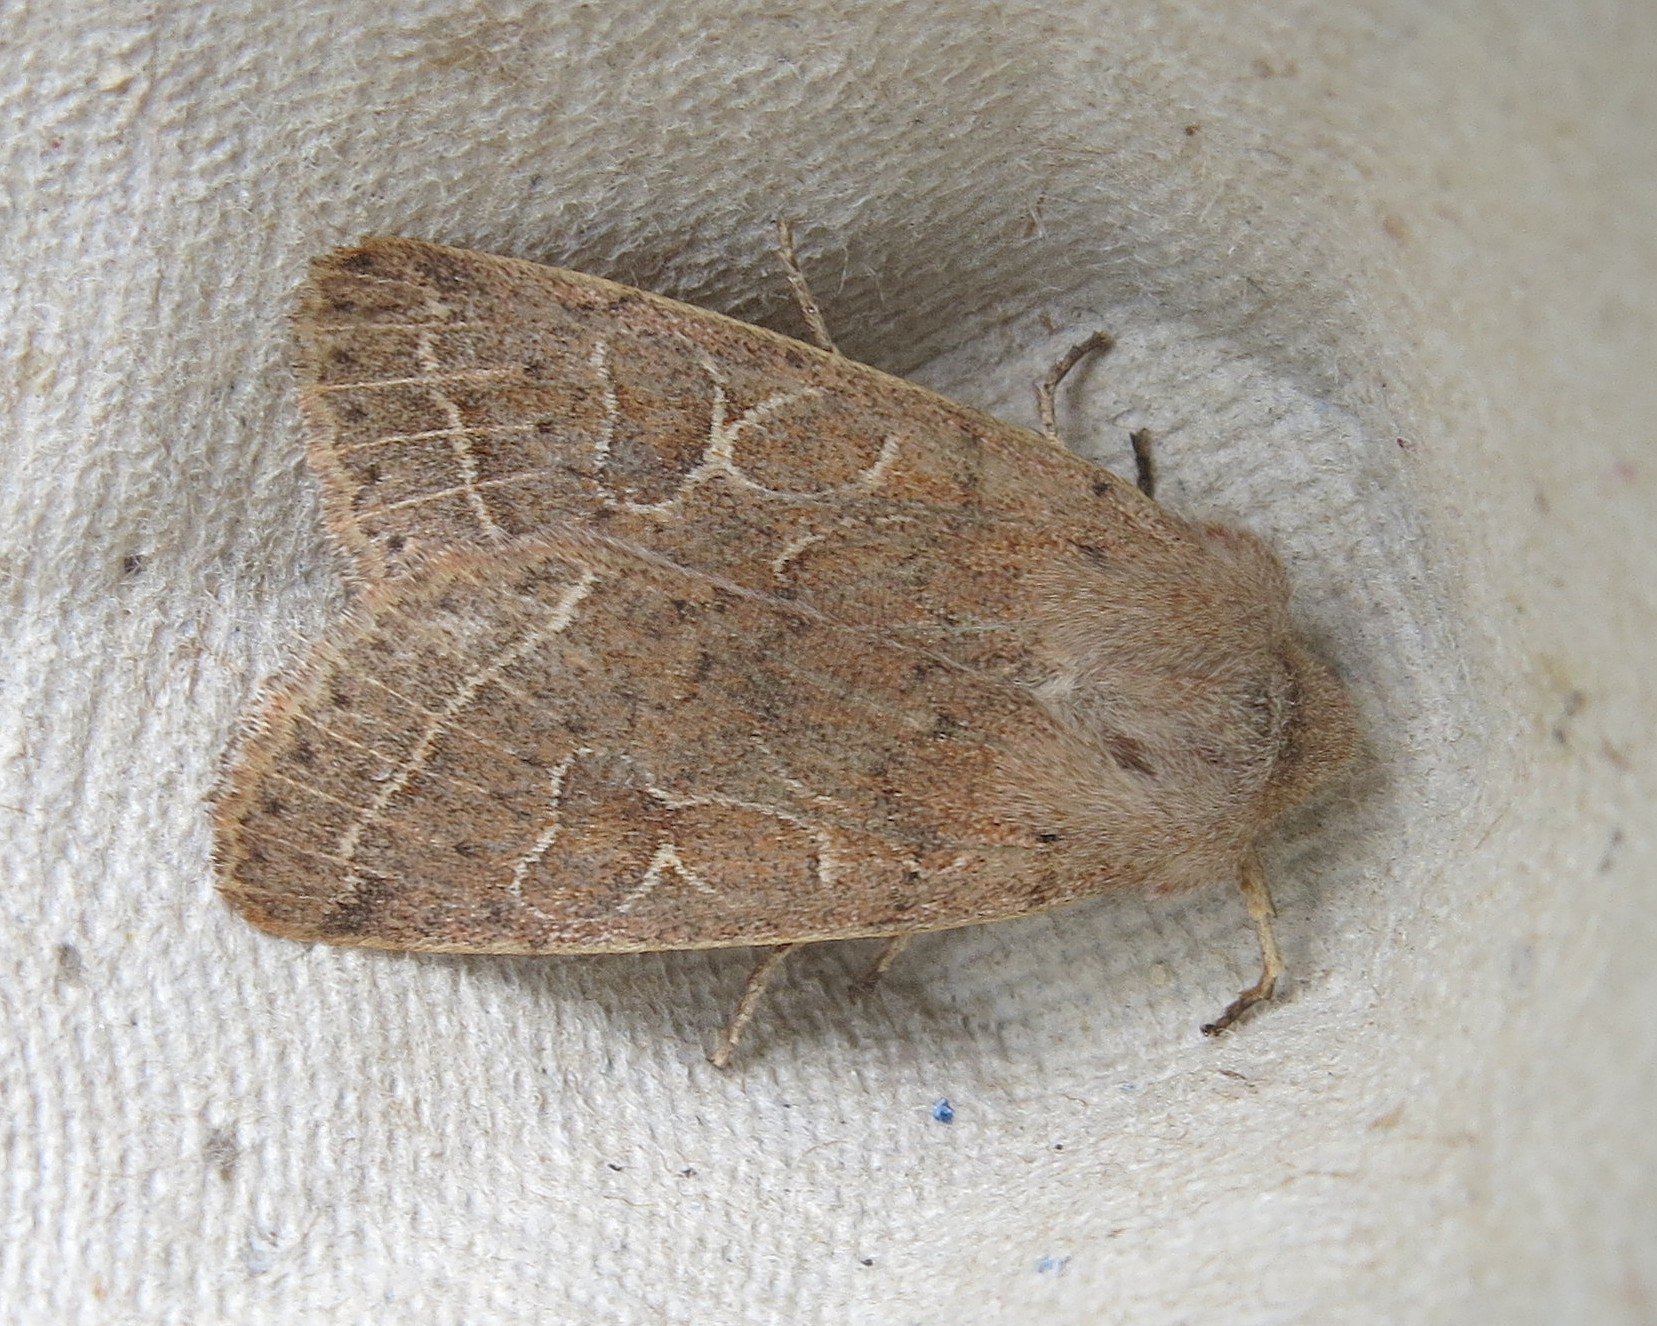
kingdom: Animalia
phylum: Arthropoda
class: Insecta
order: Lepidoptera
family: Noctuidae
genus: Orthosia
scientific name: Orthosia cerasi
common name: Common quaker
